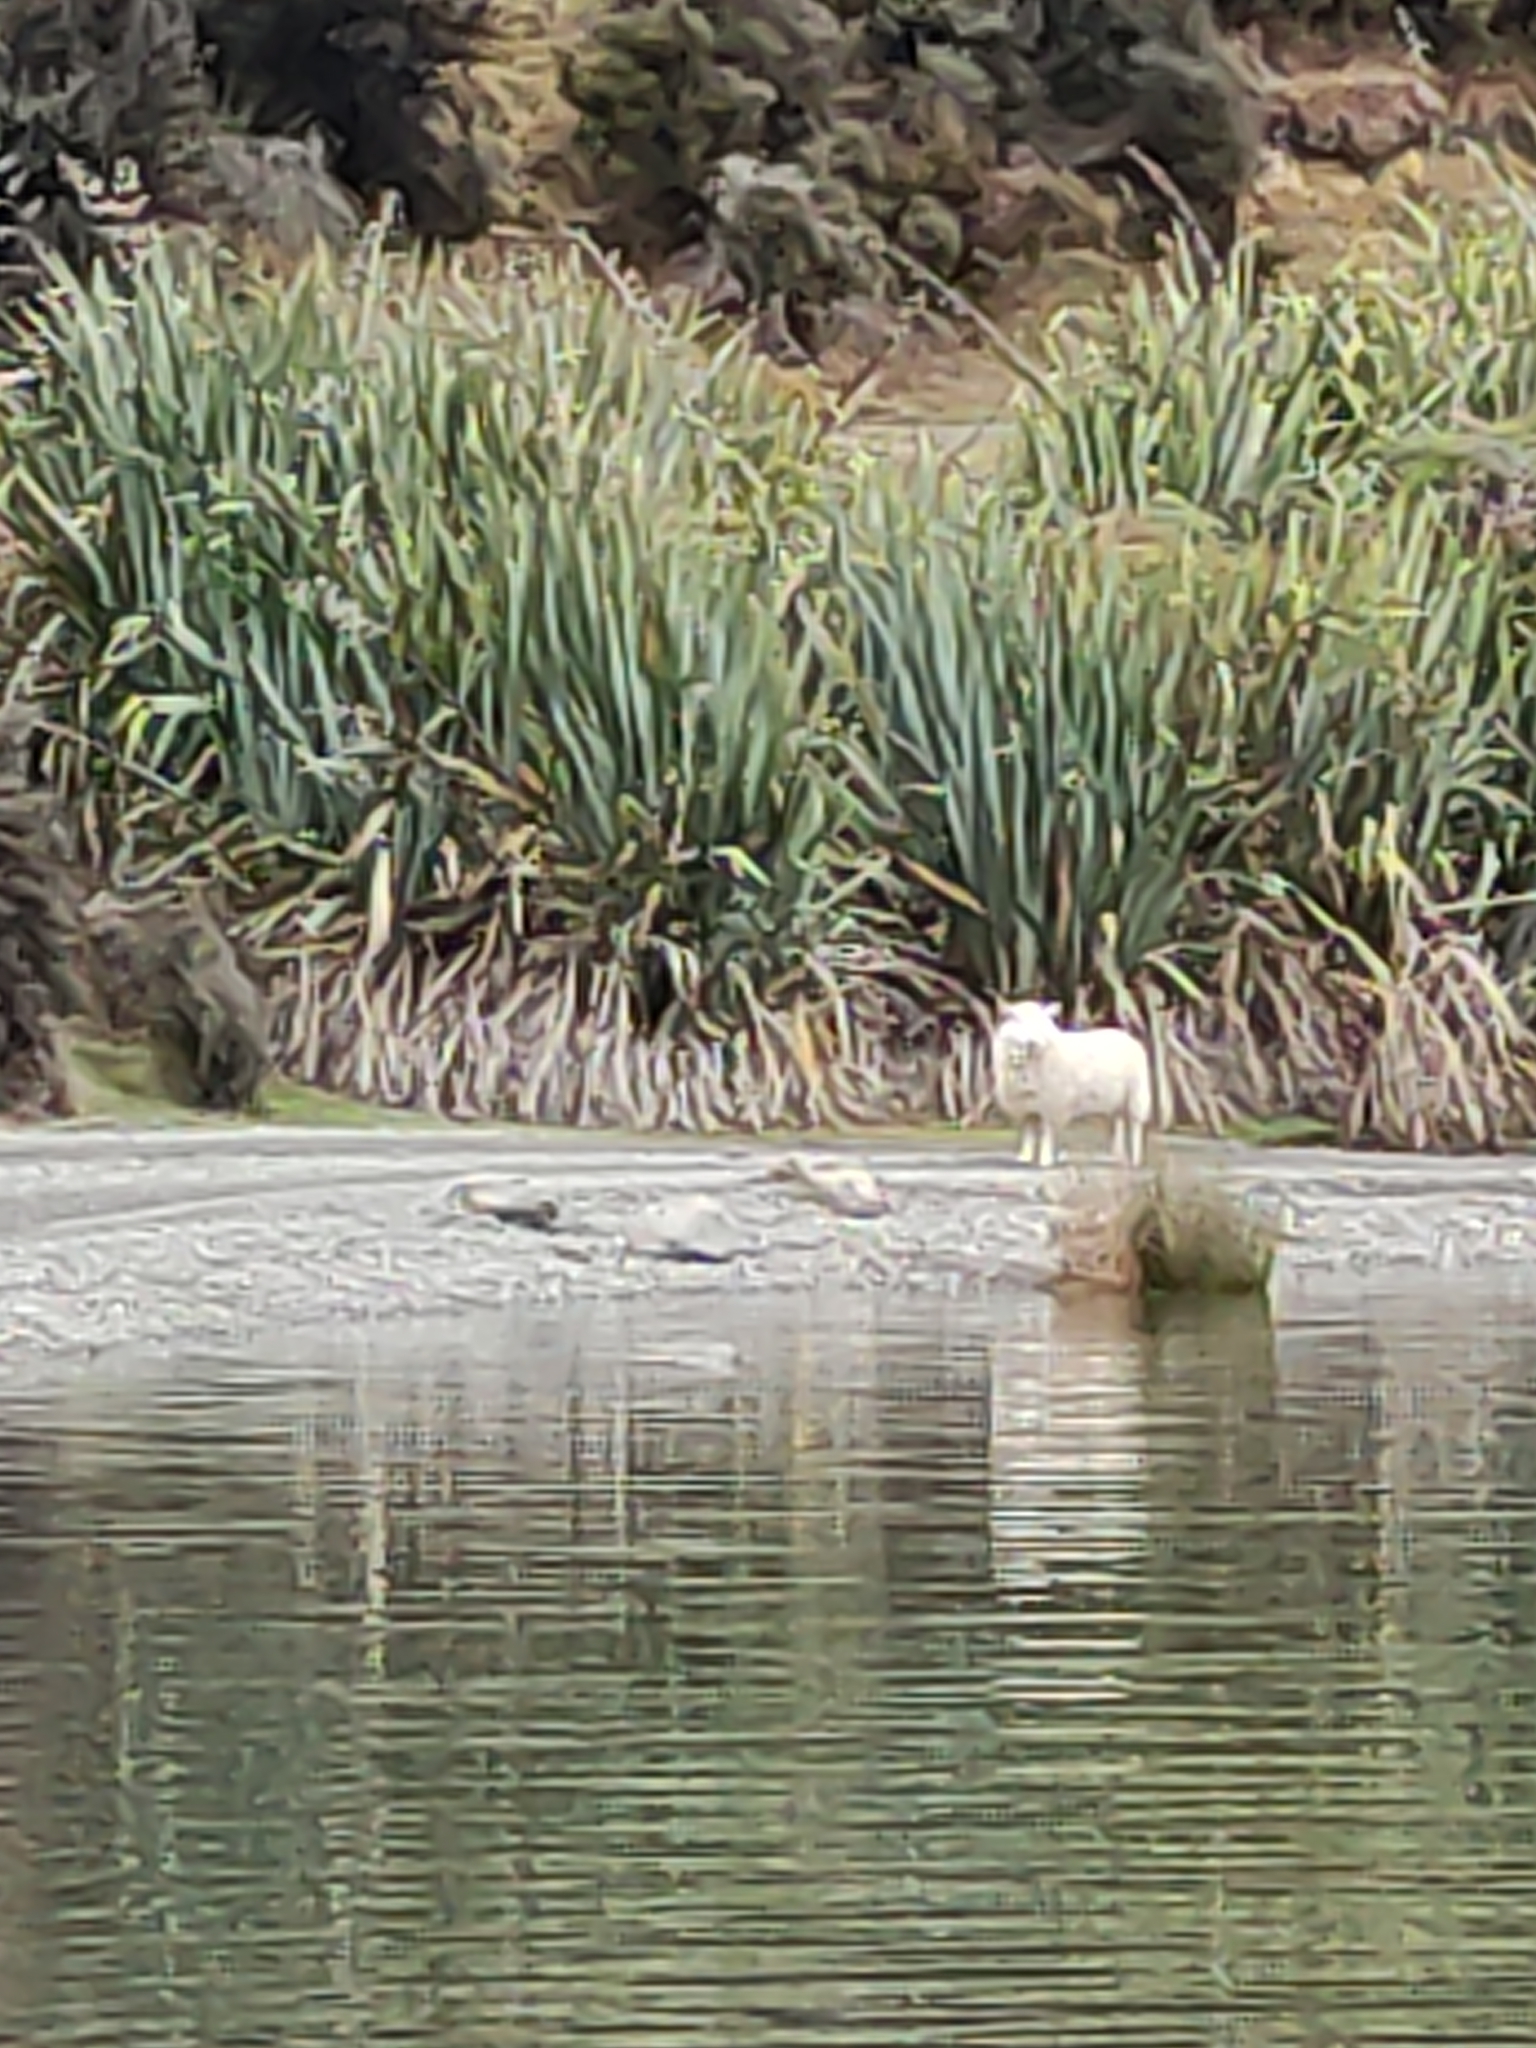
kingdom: Animalia
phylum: Chordata
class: Mammalia
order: Artiodactyla
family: Bovidae
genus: Ovis
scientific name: Ovis aries
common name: Domestic sheep
